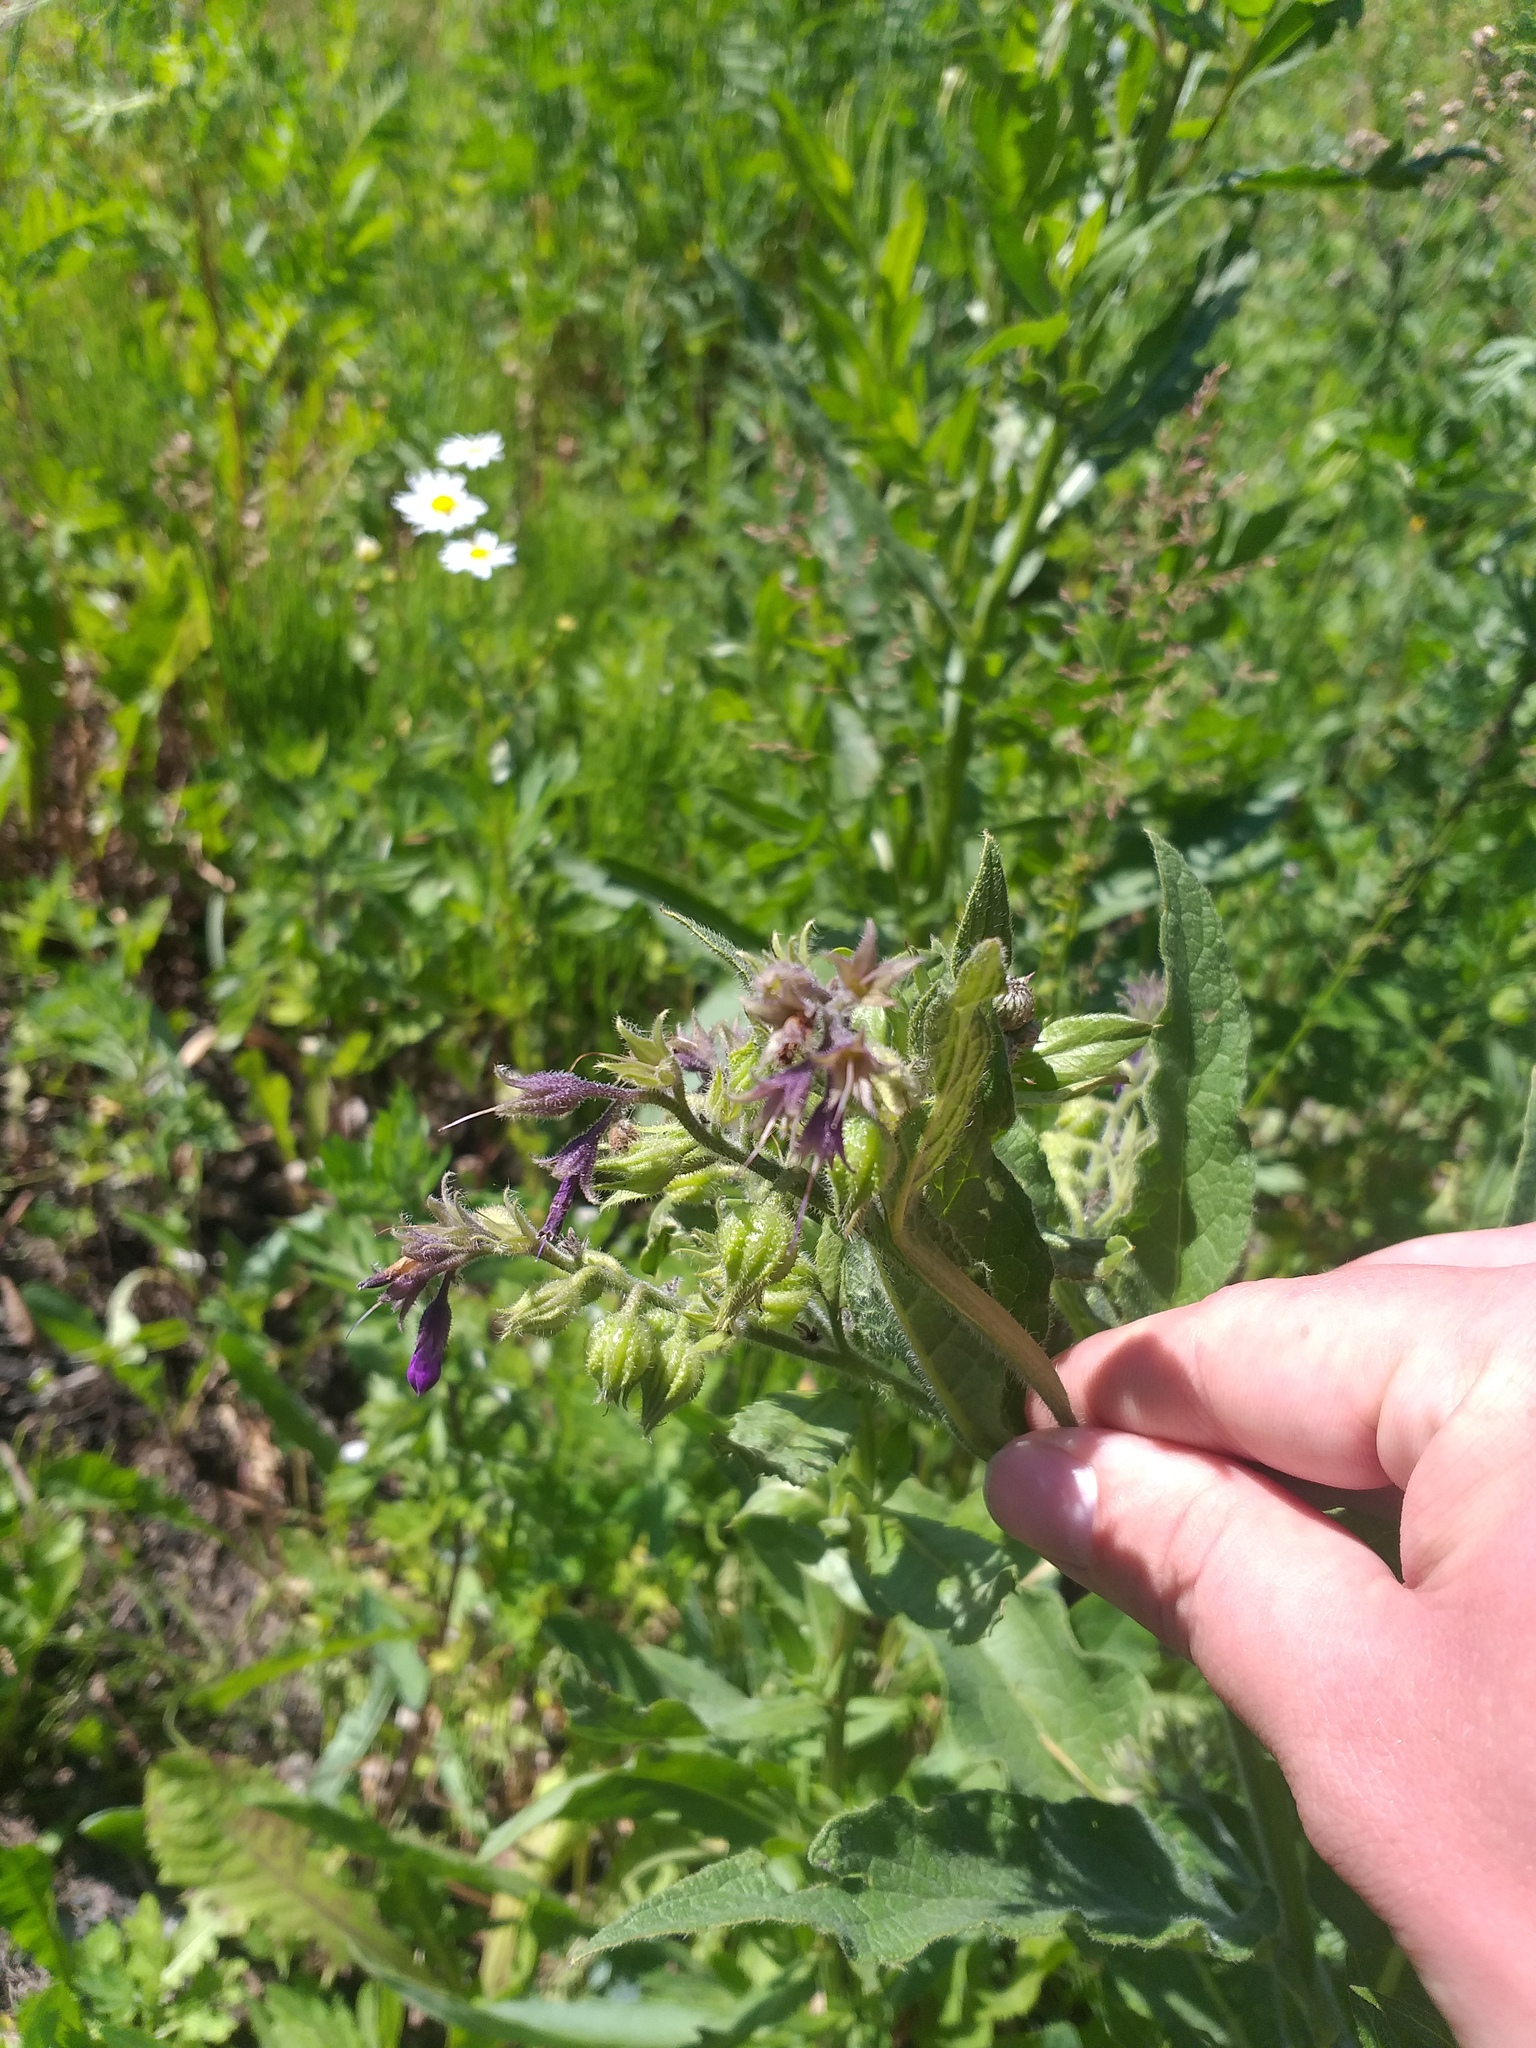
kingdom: Plantae
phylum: Tracheophyta
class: Magnoliopsida
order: Boraginales
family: Boraginaceae
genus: Symphytum
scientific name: Symphytum officinale
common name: Common comfrey
